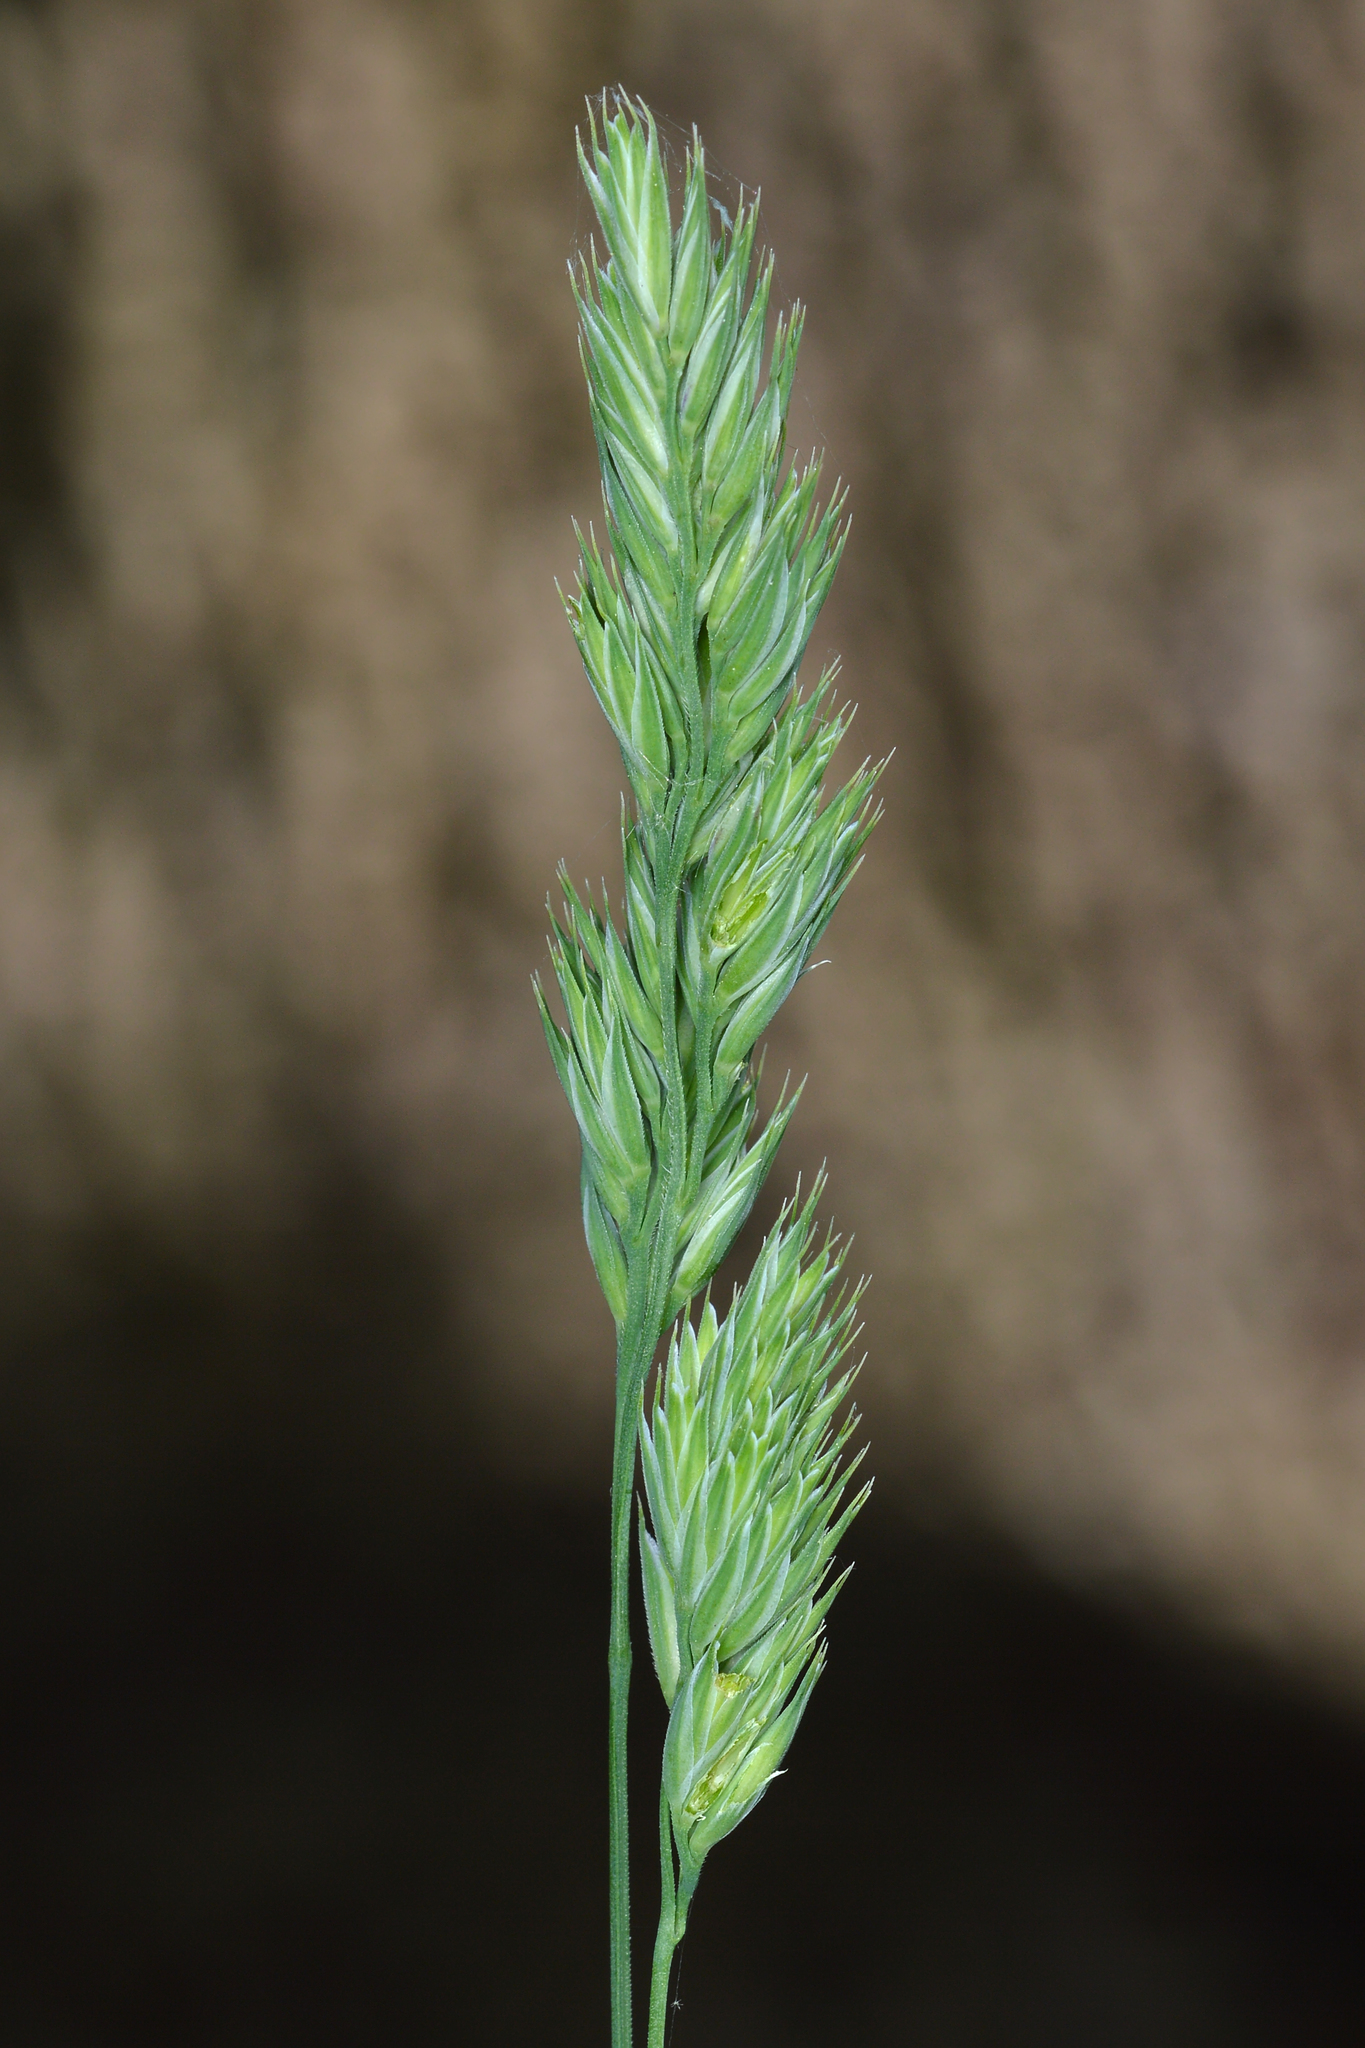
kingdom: Plantae
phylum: Tracheophyta
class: Liliopsida
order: Poales
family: Poaceae
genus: Dactylis
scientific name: Dactylis glomerata
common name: Orchardgrass
